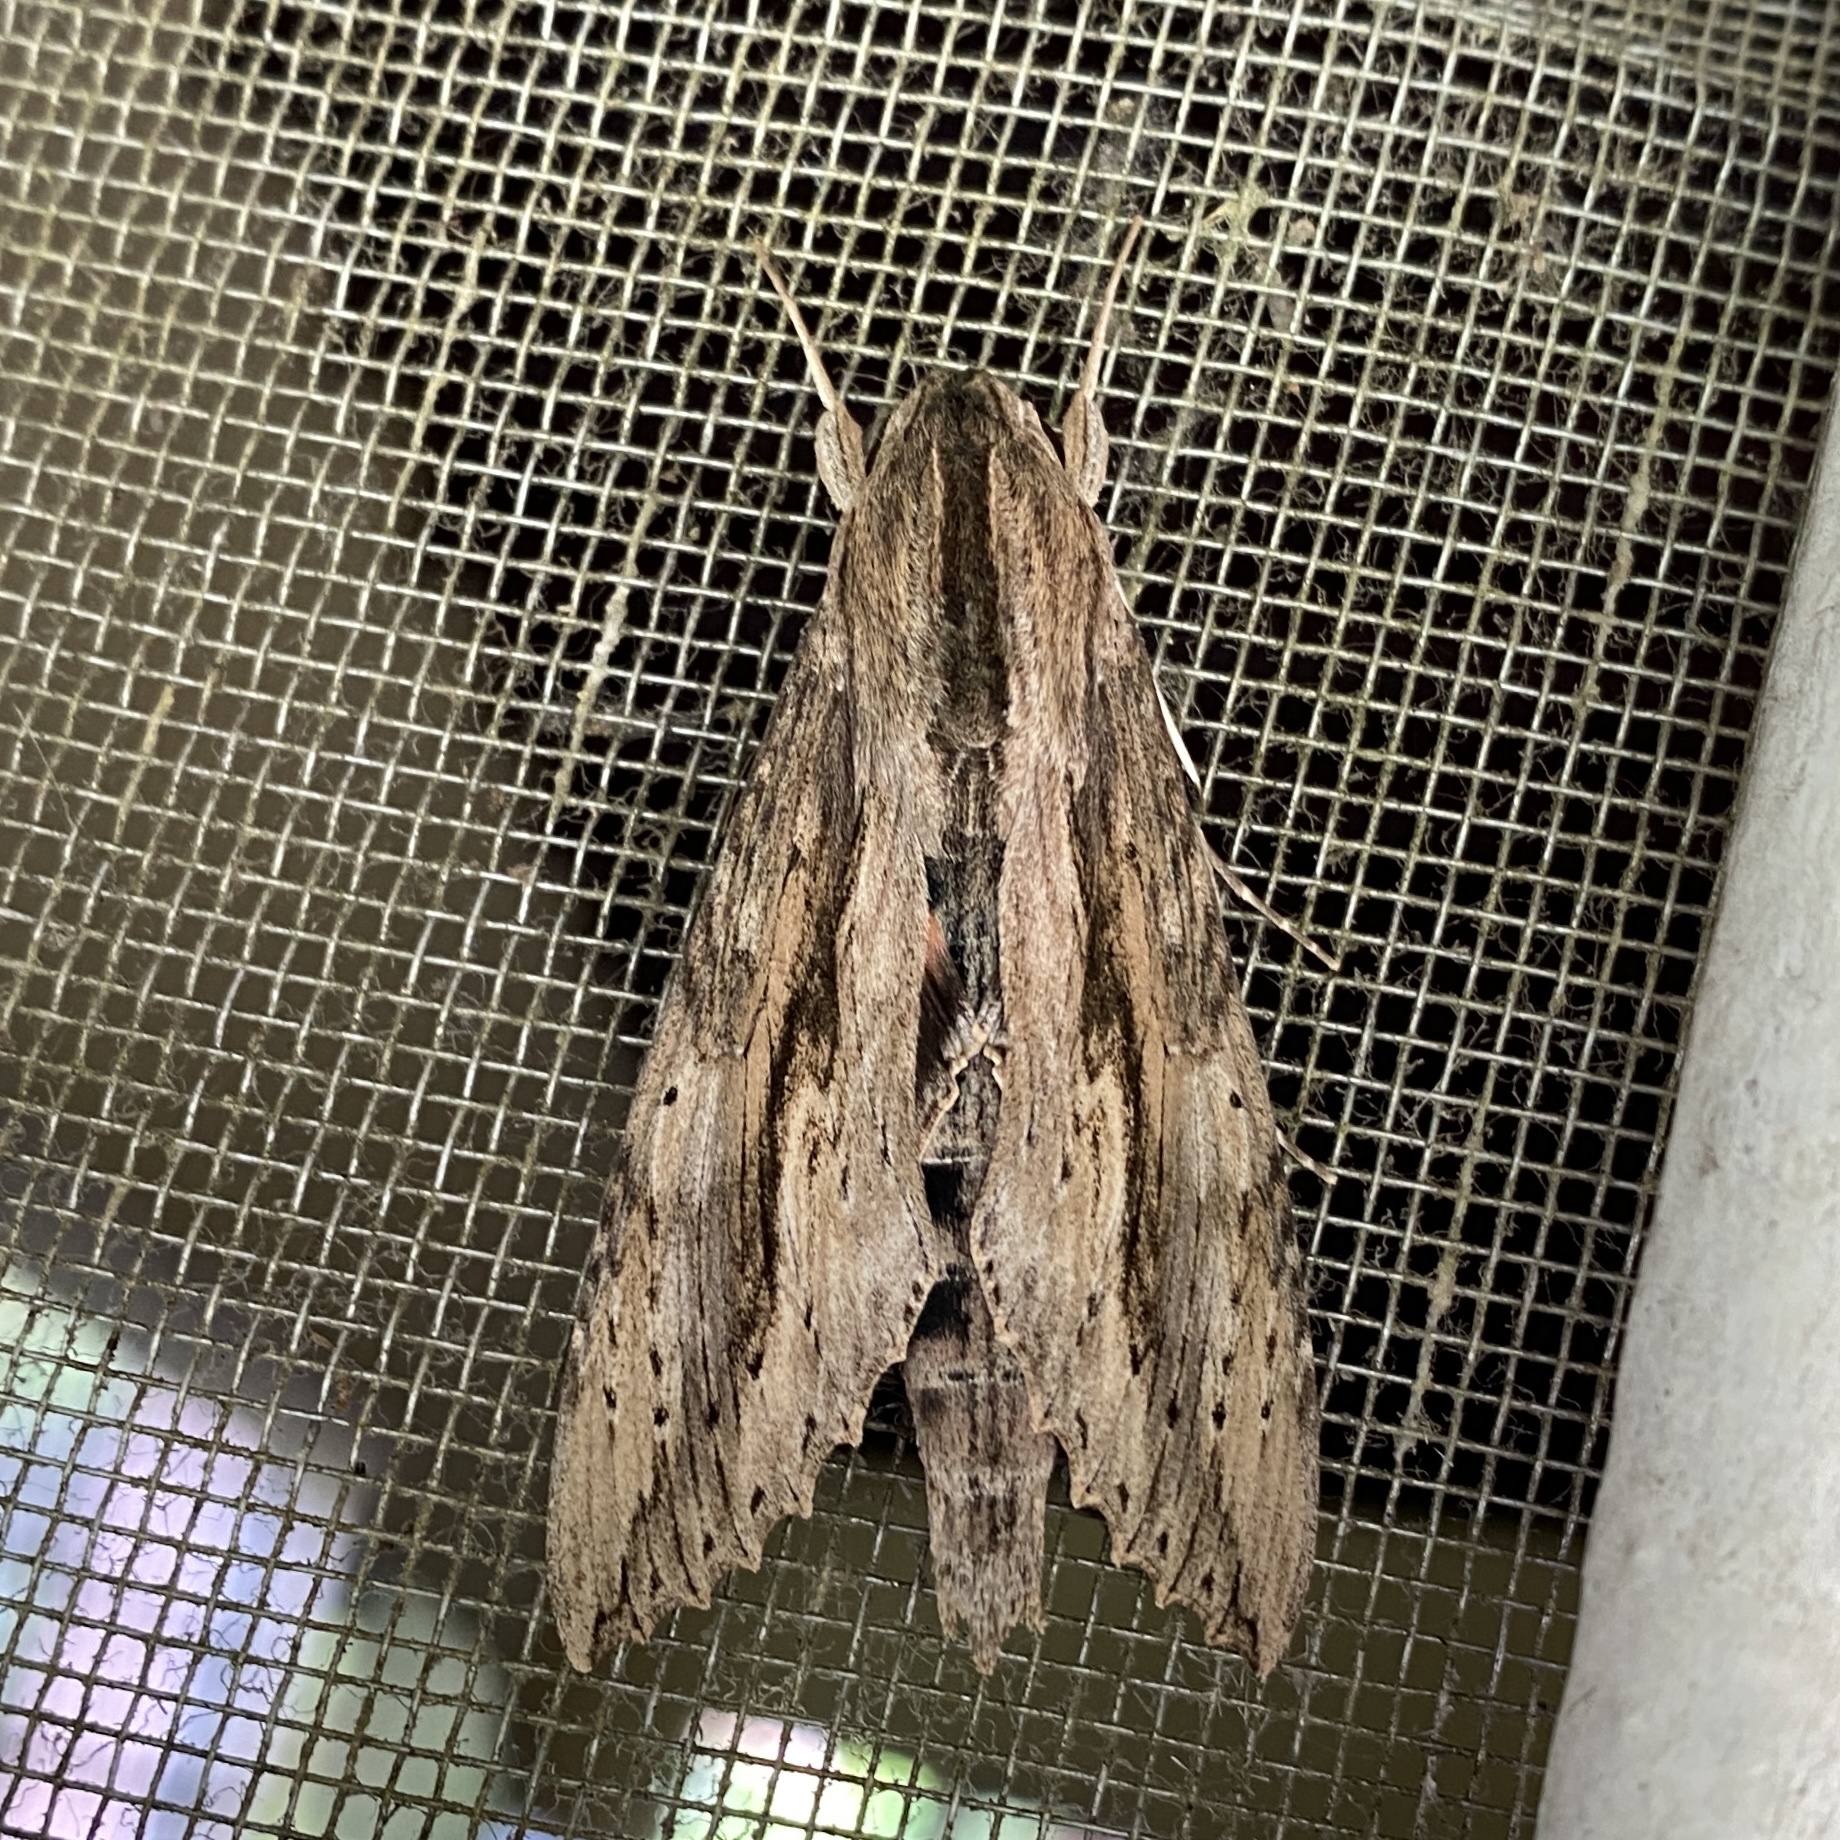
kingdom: Animalia
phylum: Arthropoda
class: Insecta
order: Lepidoptera
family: Sphingidae
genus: Erinnyis
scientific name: Erinnyis ello
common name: Ello sphinx
